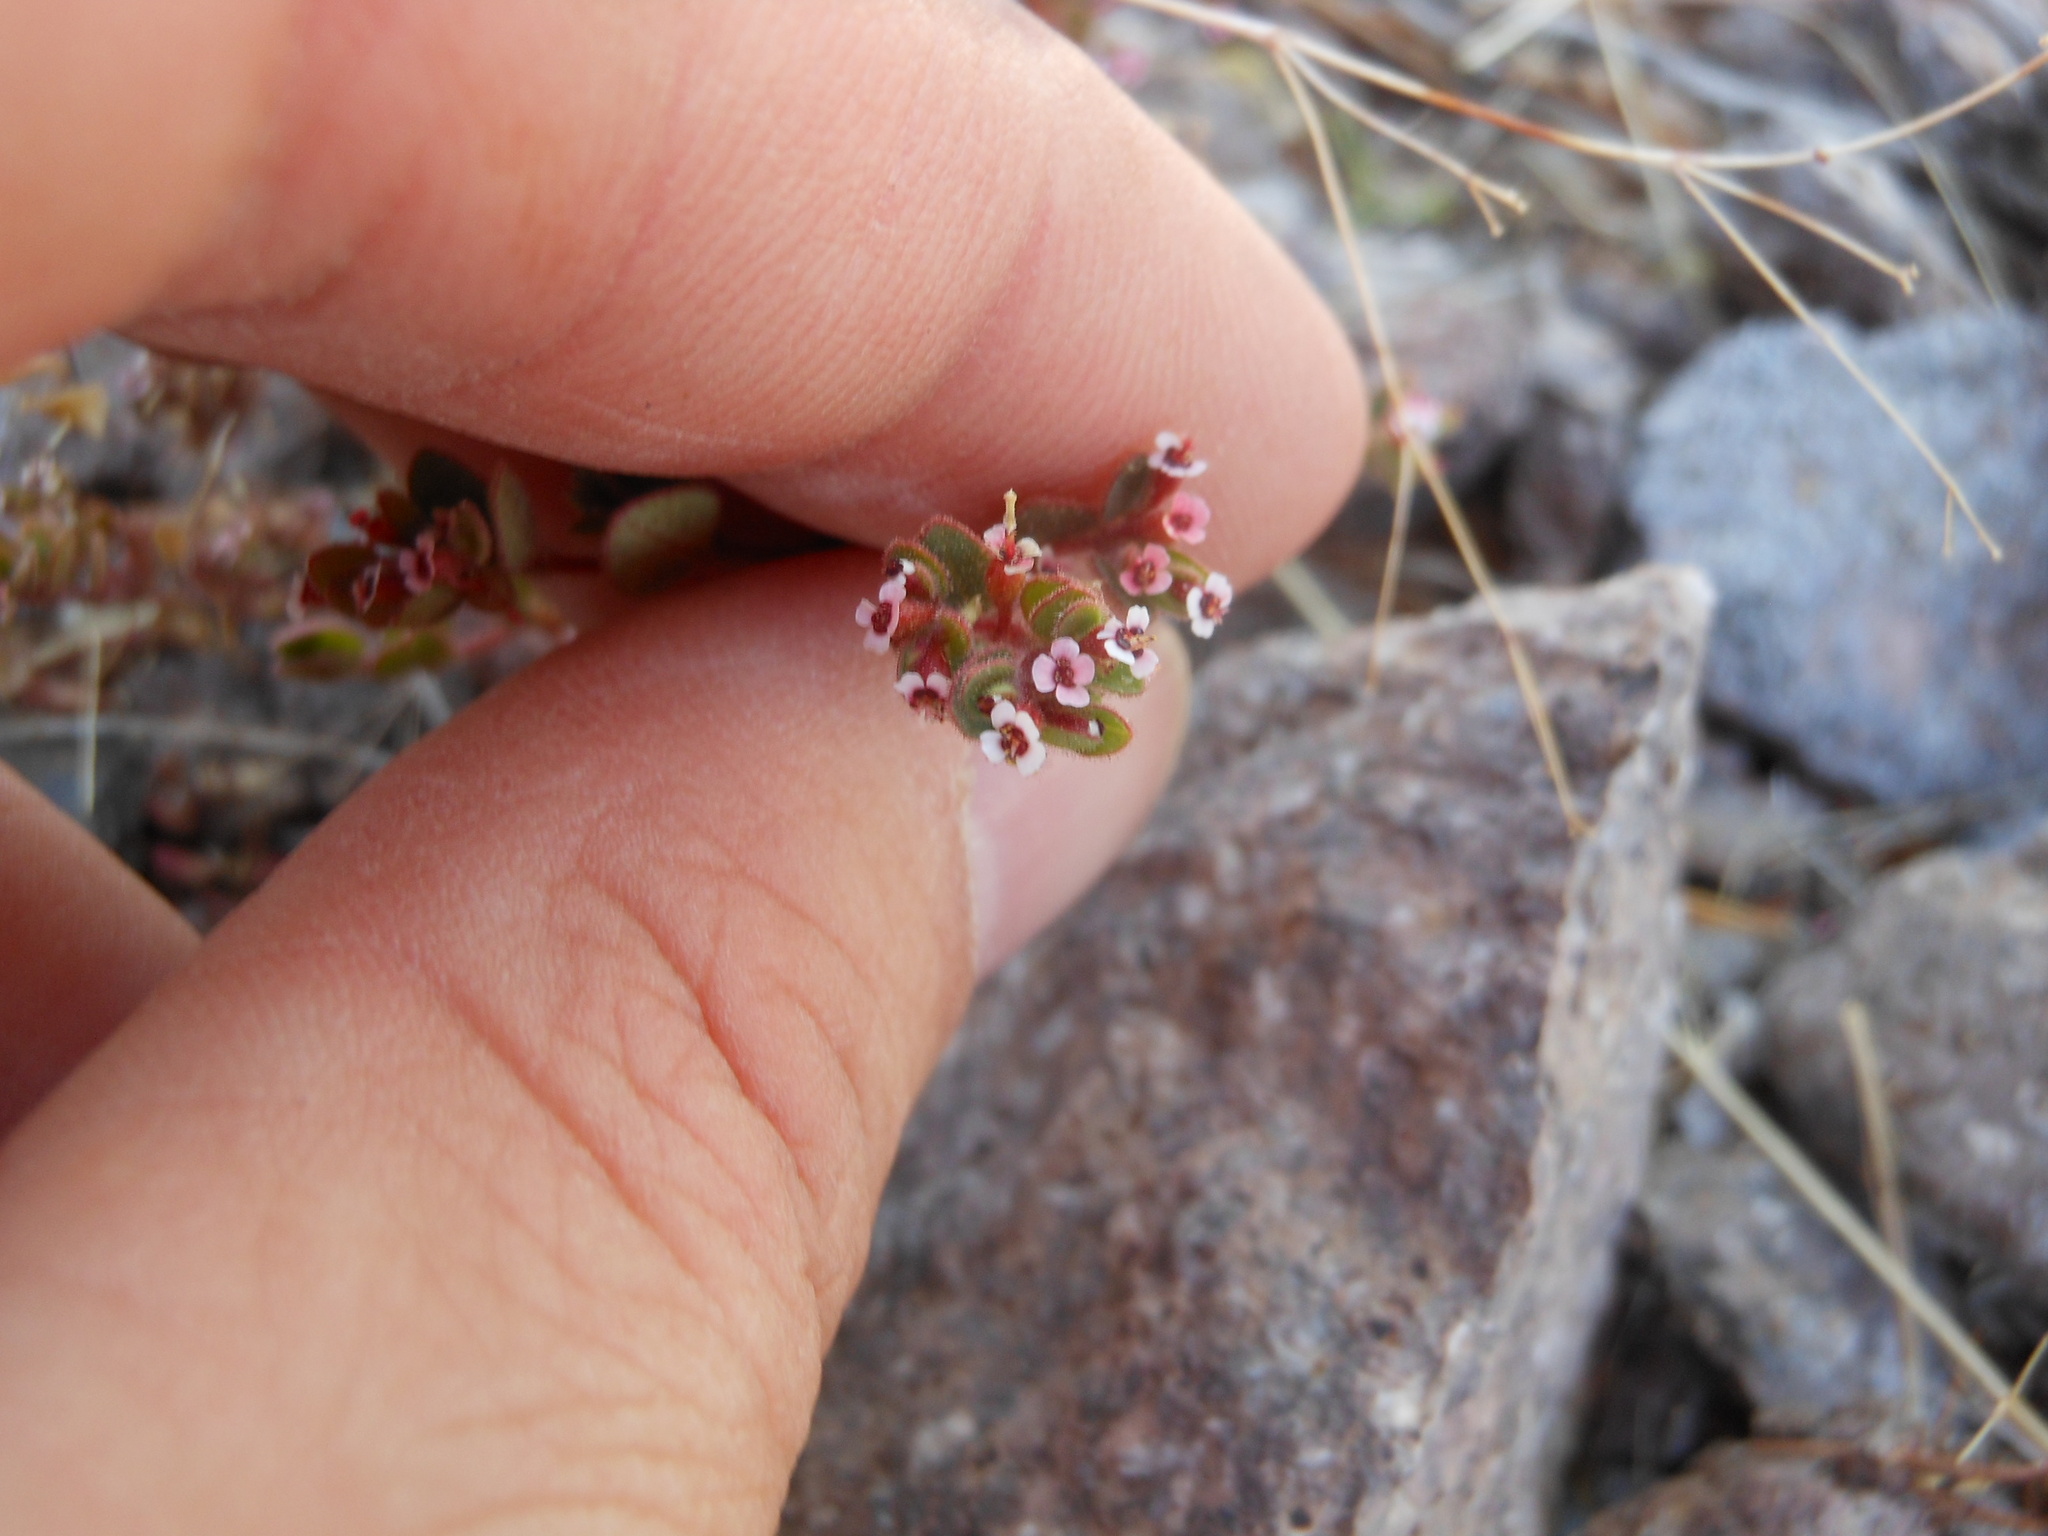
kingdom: Plantae
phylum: Tracheophyta
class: Magnoliopsida
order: Malpighiales
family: Euphorbiaceae
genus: Euphorbia
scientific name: Euphorbia arizonica
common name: Arizona spurge
